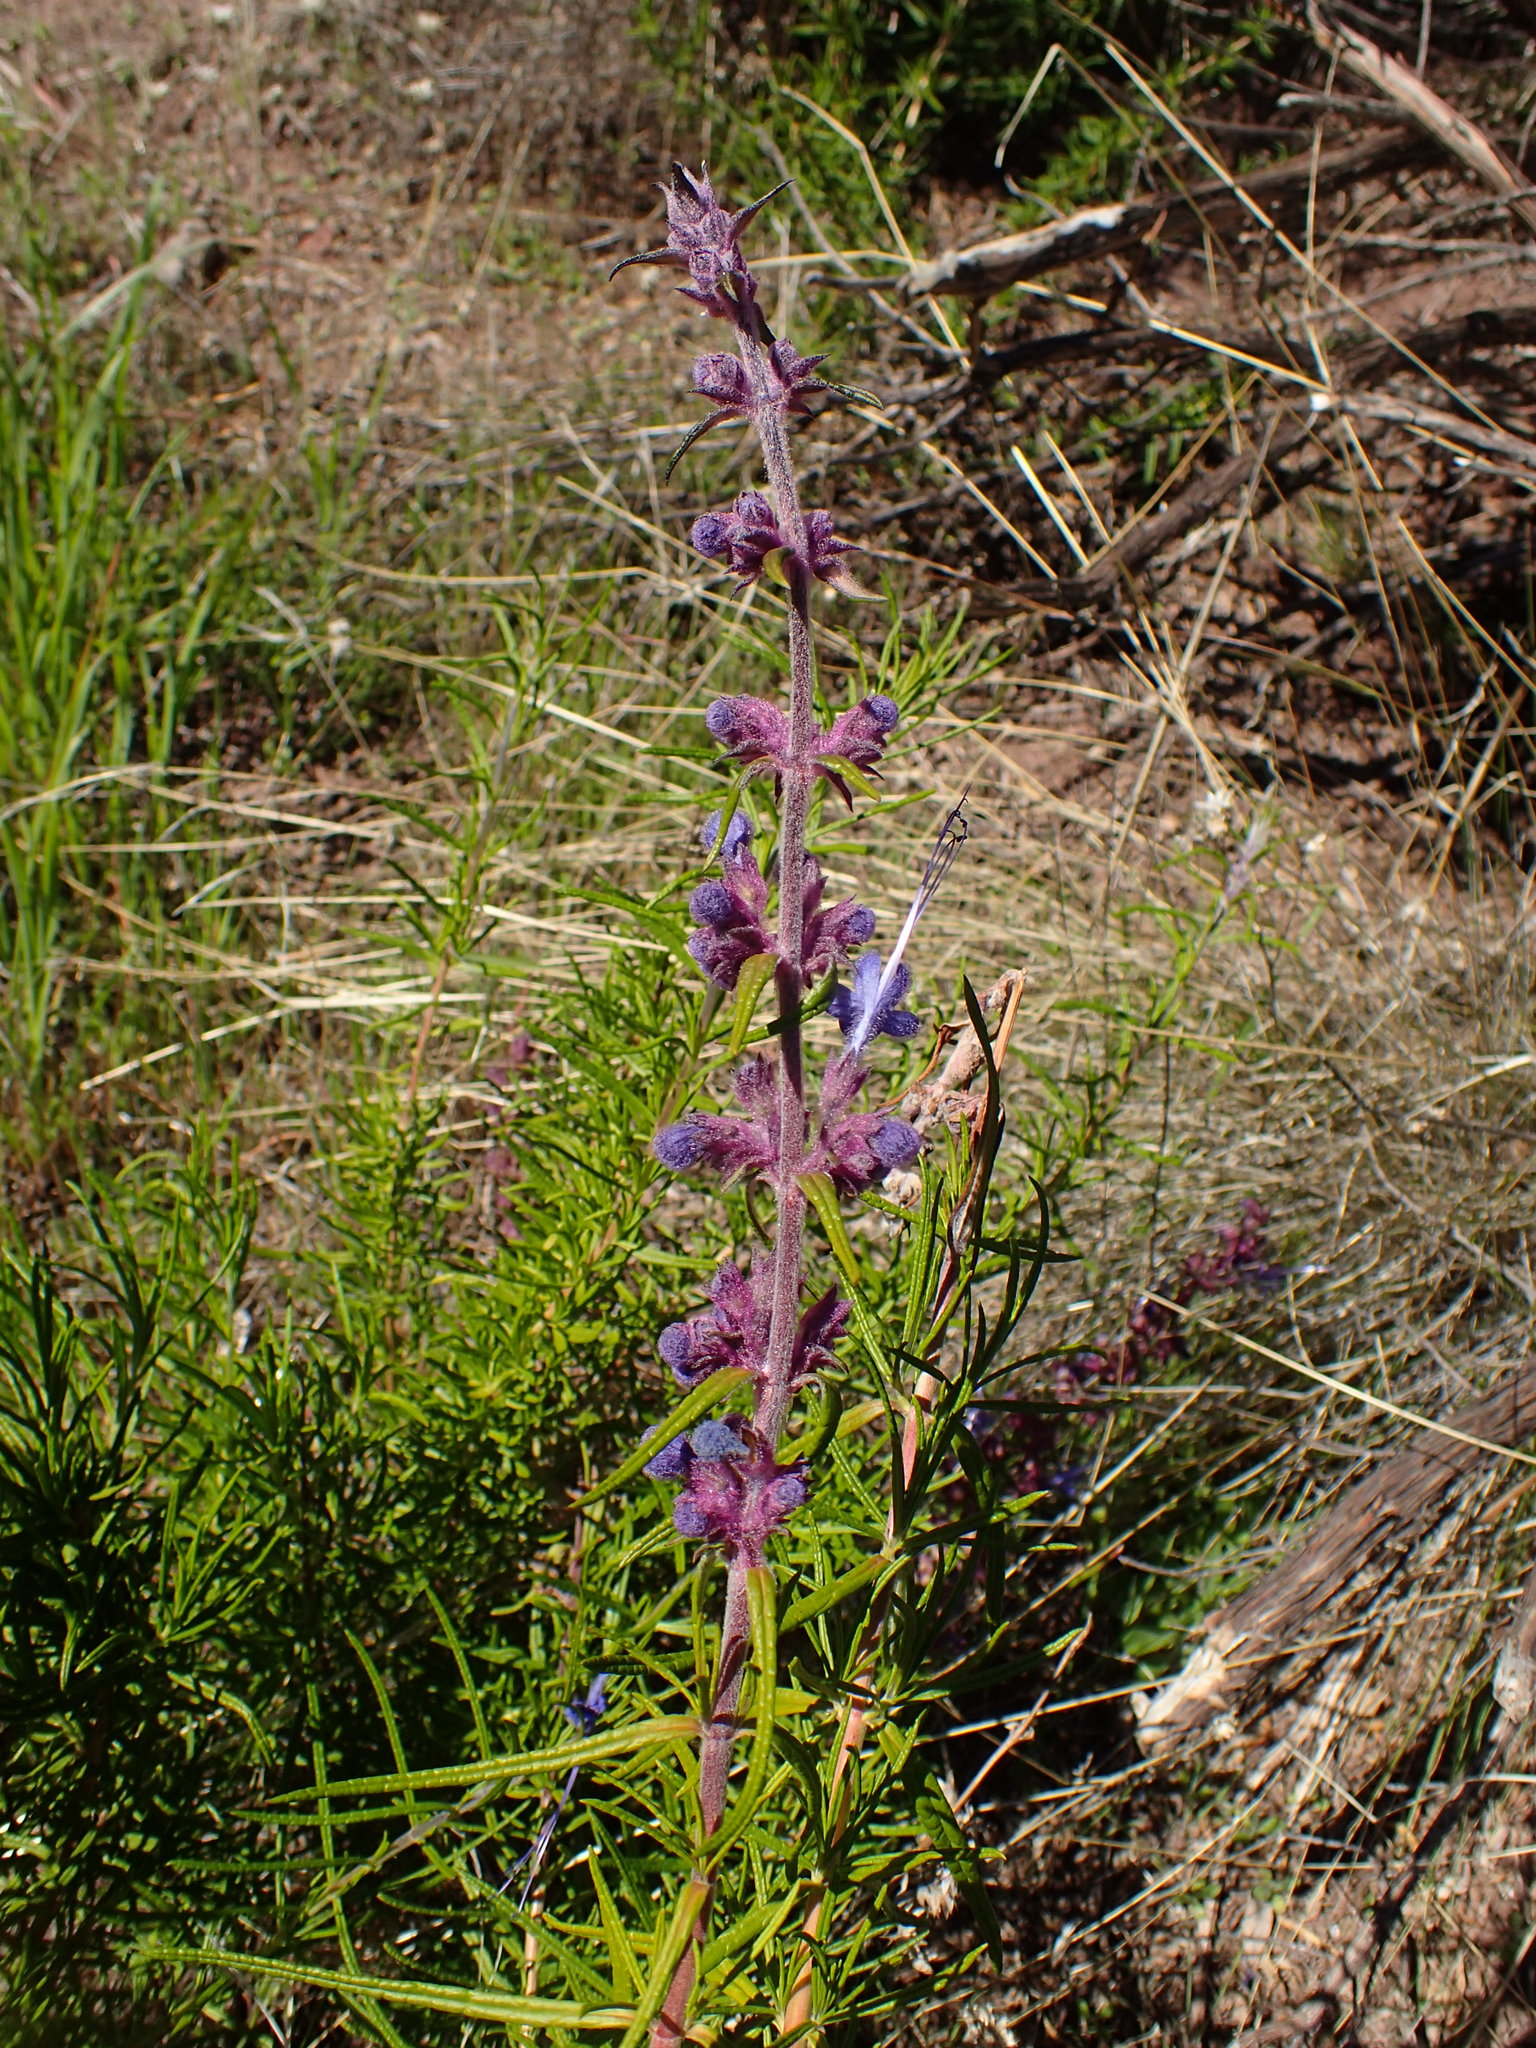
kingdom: Plantae
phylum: Tracheophyta
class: Magnoliopsida
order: Lamiales
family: Lamiaceae
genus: Trichostema
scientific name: Trichostema lanatum
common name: Woolly bluecurls
